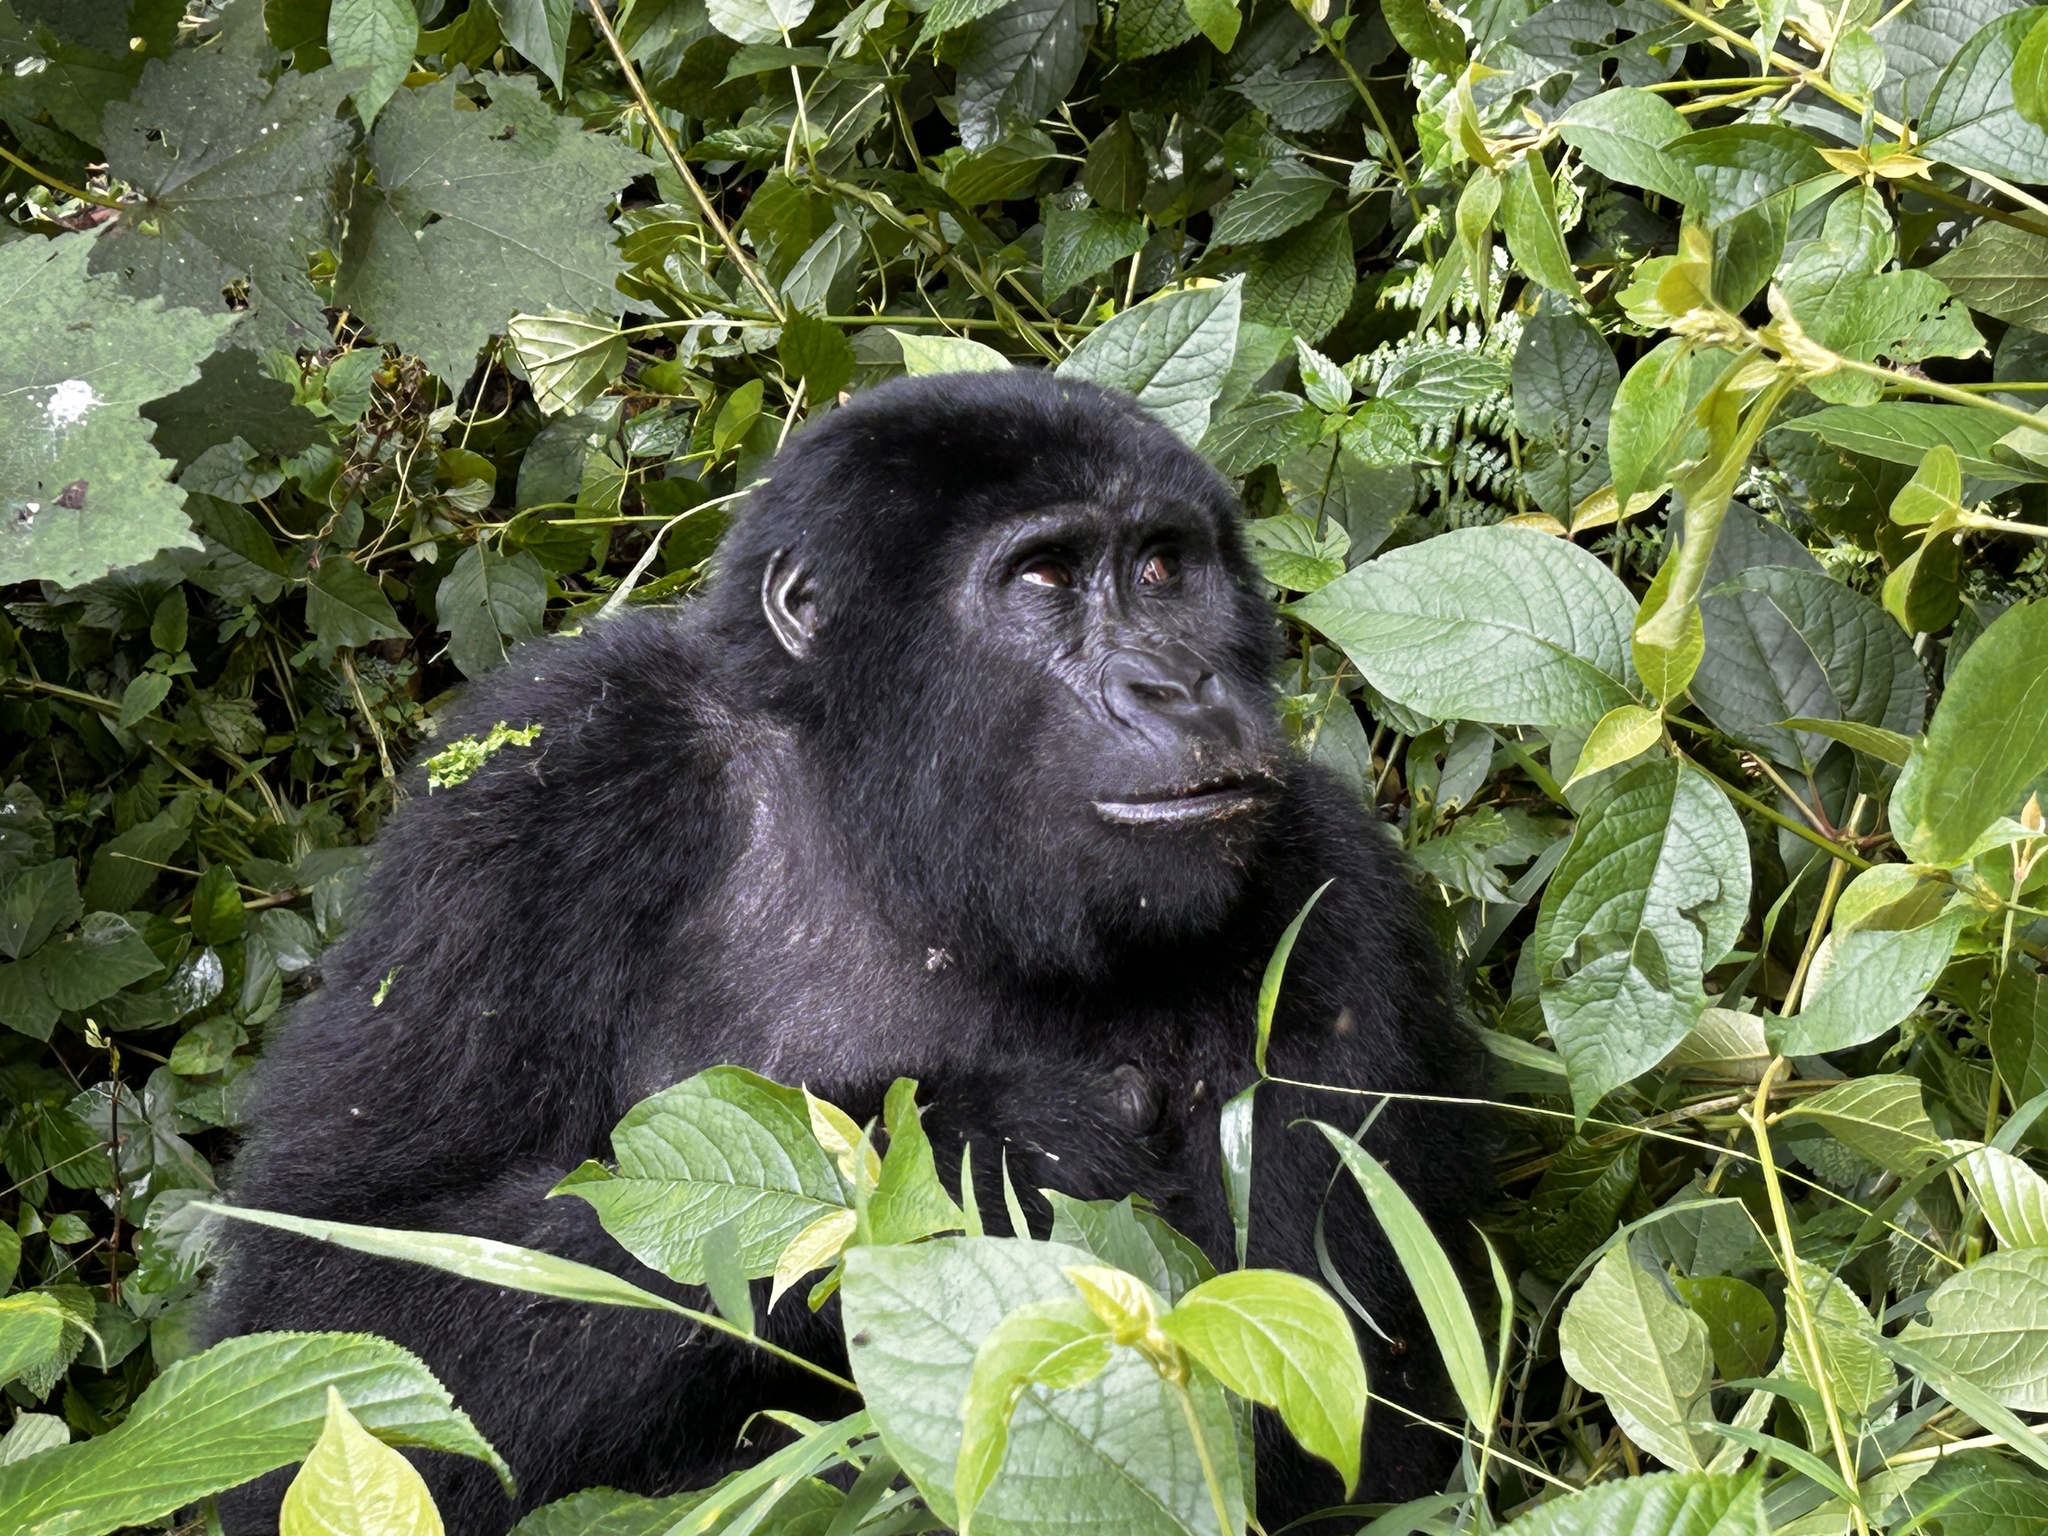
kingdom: Animalia
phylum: Chordata
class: Mammalia
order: Primates
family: Hominidae
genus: Gorilla
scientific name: Gorilla beringei
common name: Eastern gorilla
